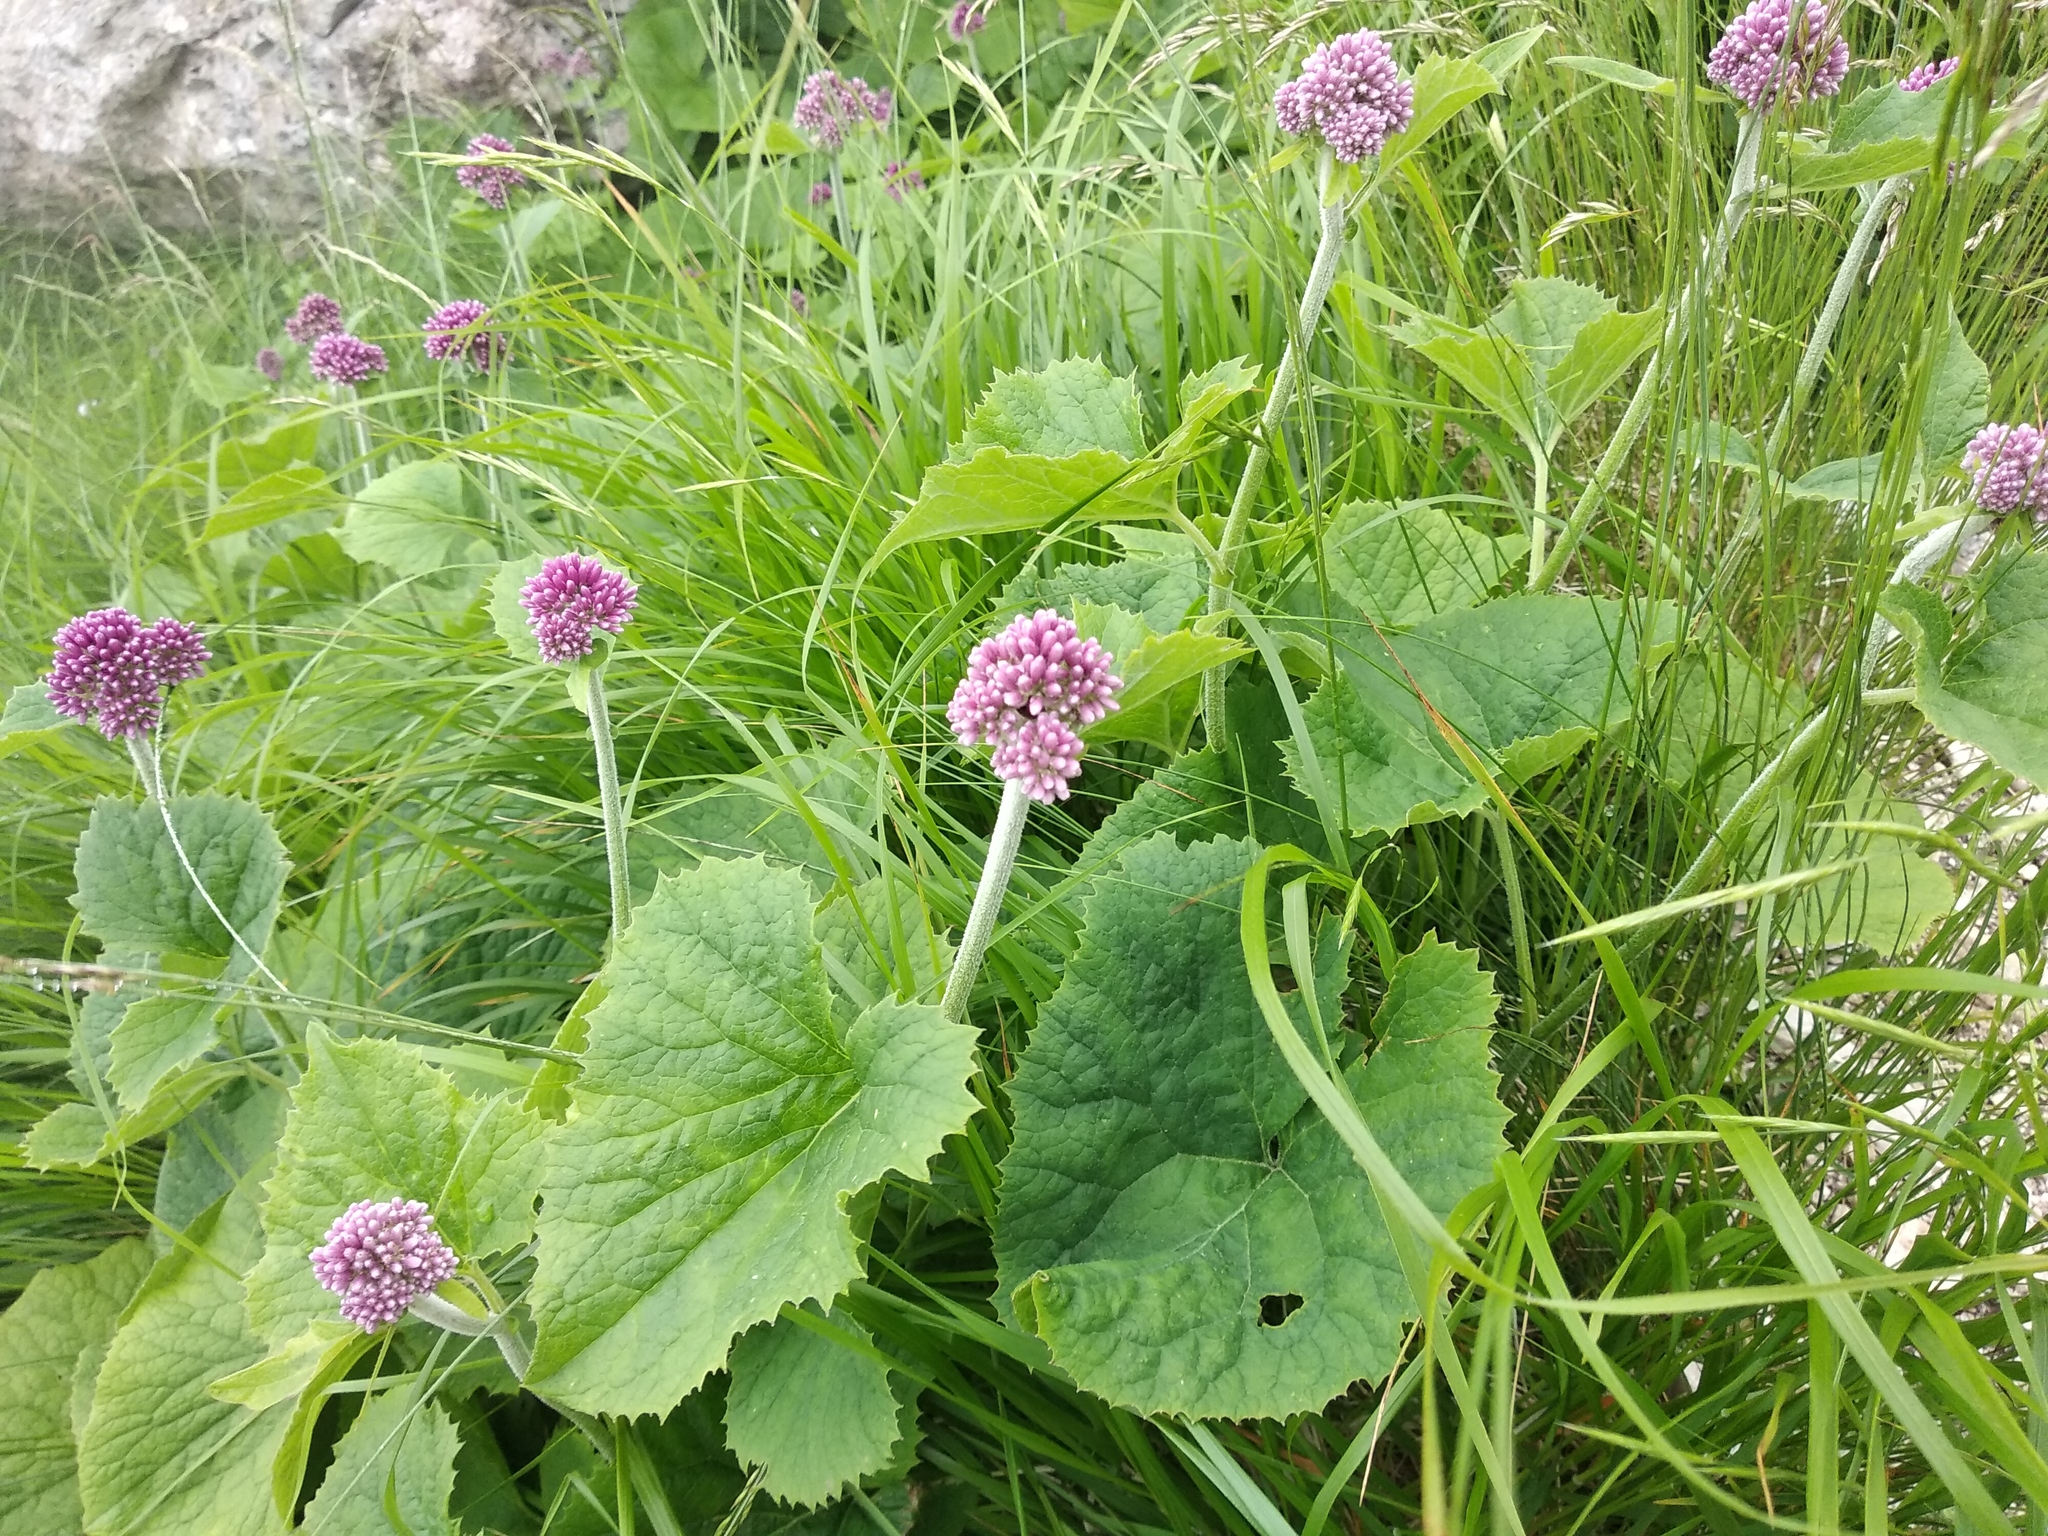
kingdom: Plantae
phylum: Tracheophyta
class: Magnoliopsida
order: Asterales
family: Asteraceae
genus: Adenostyles
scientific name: Adenostyles australis
